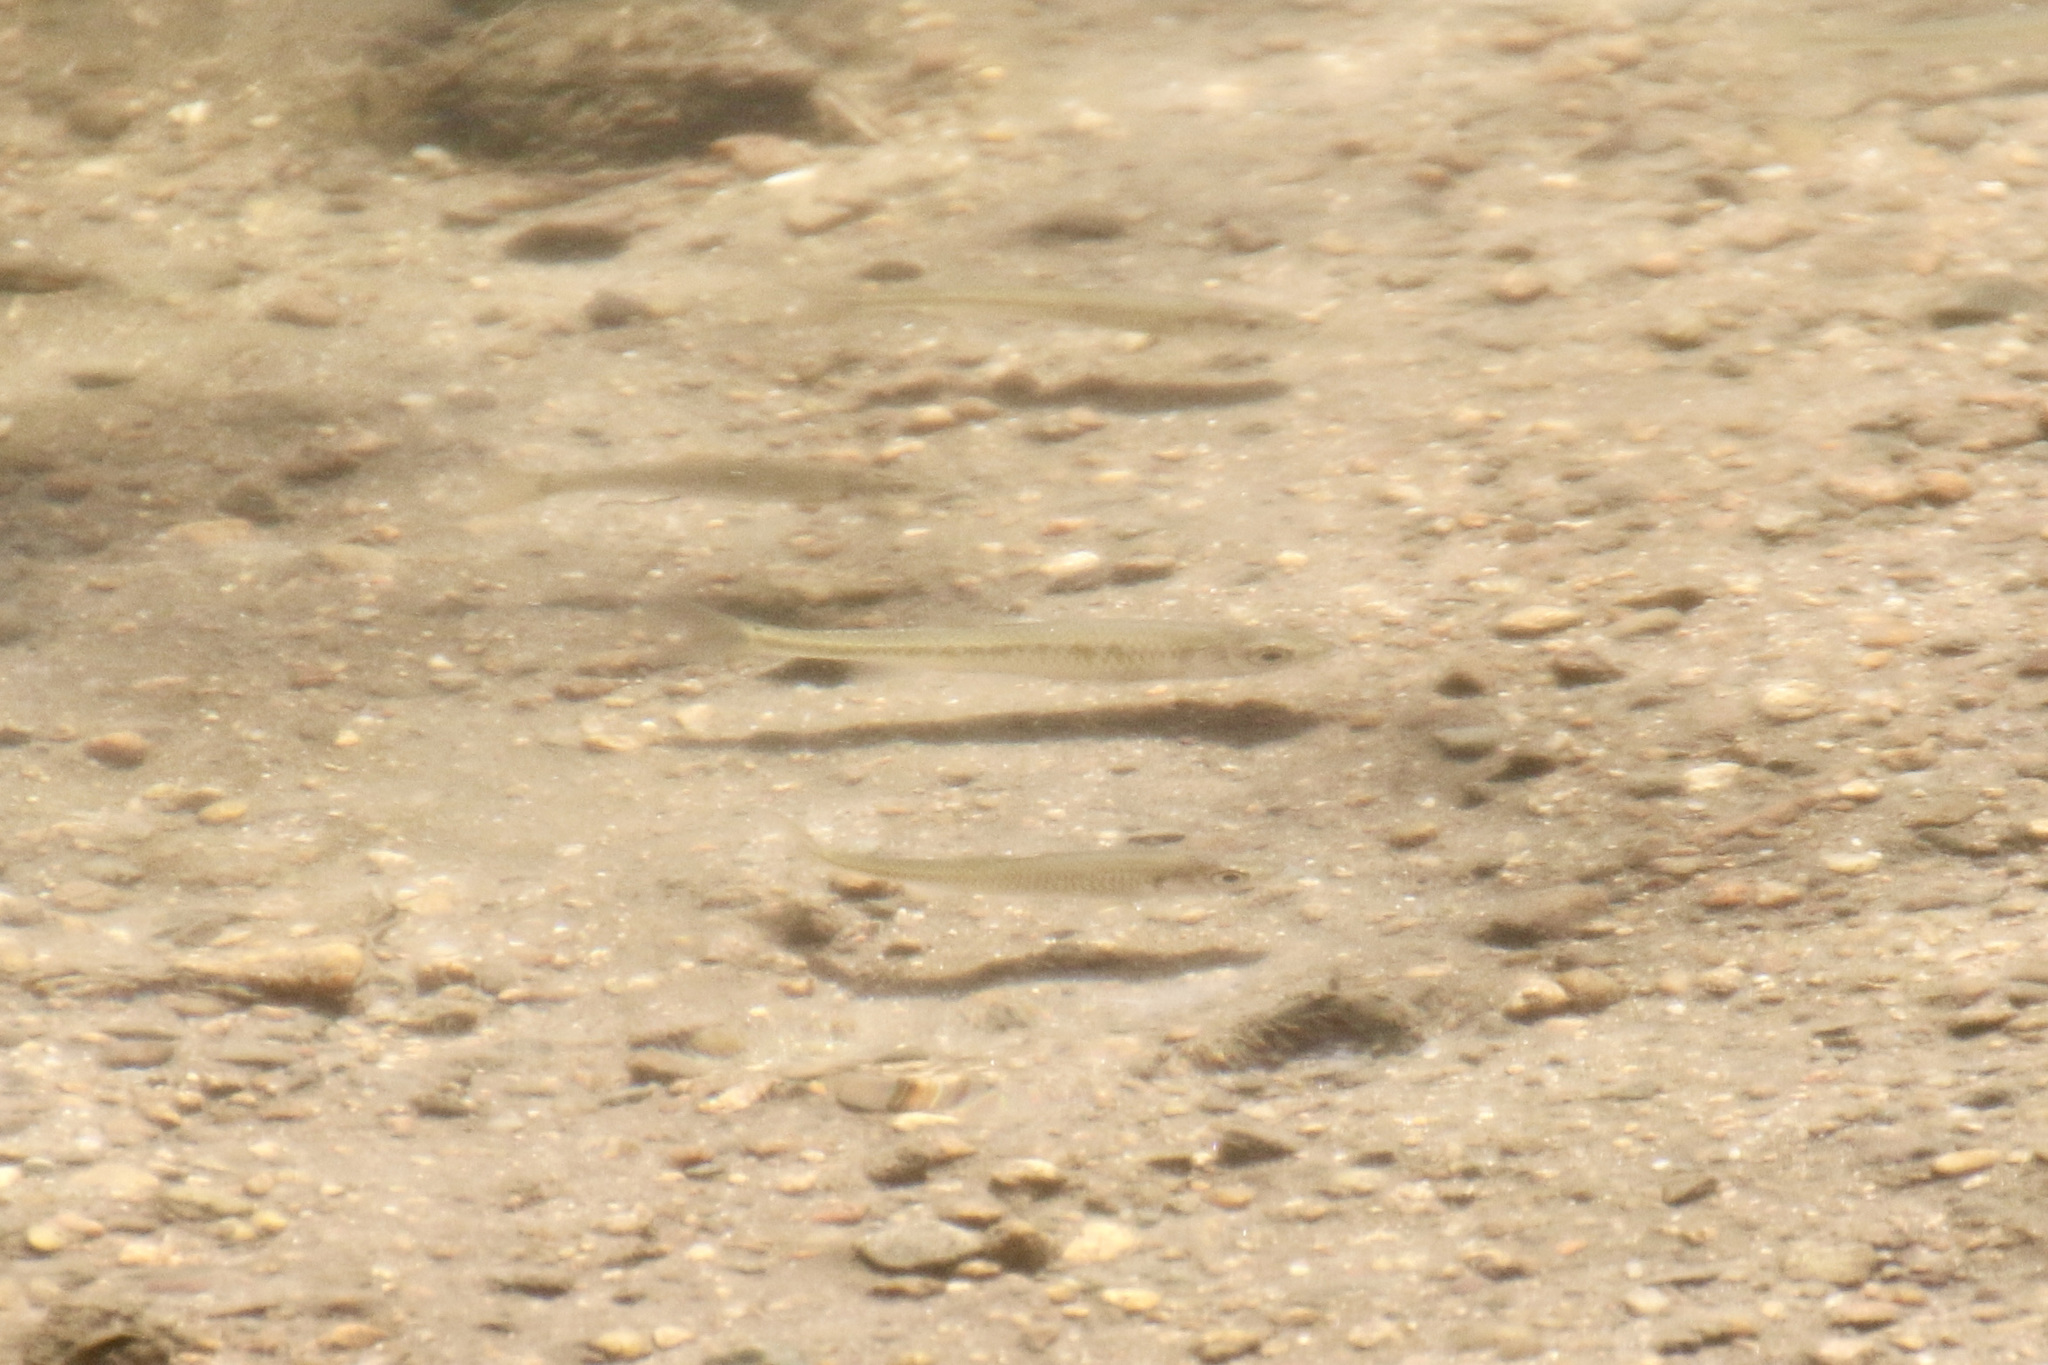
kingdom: Animalia
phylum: Chordata
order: Cypriniformes
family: Cyprinidae
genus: Luxilus
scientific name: Luxilus cornutus
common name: Common shiner
